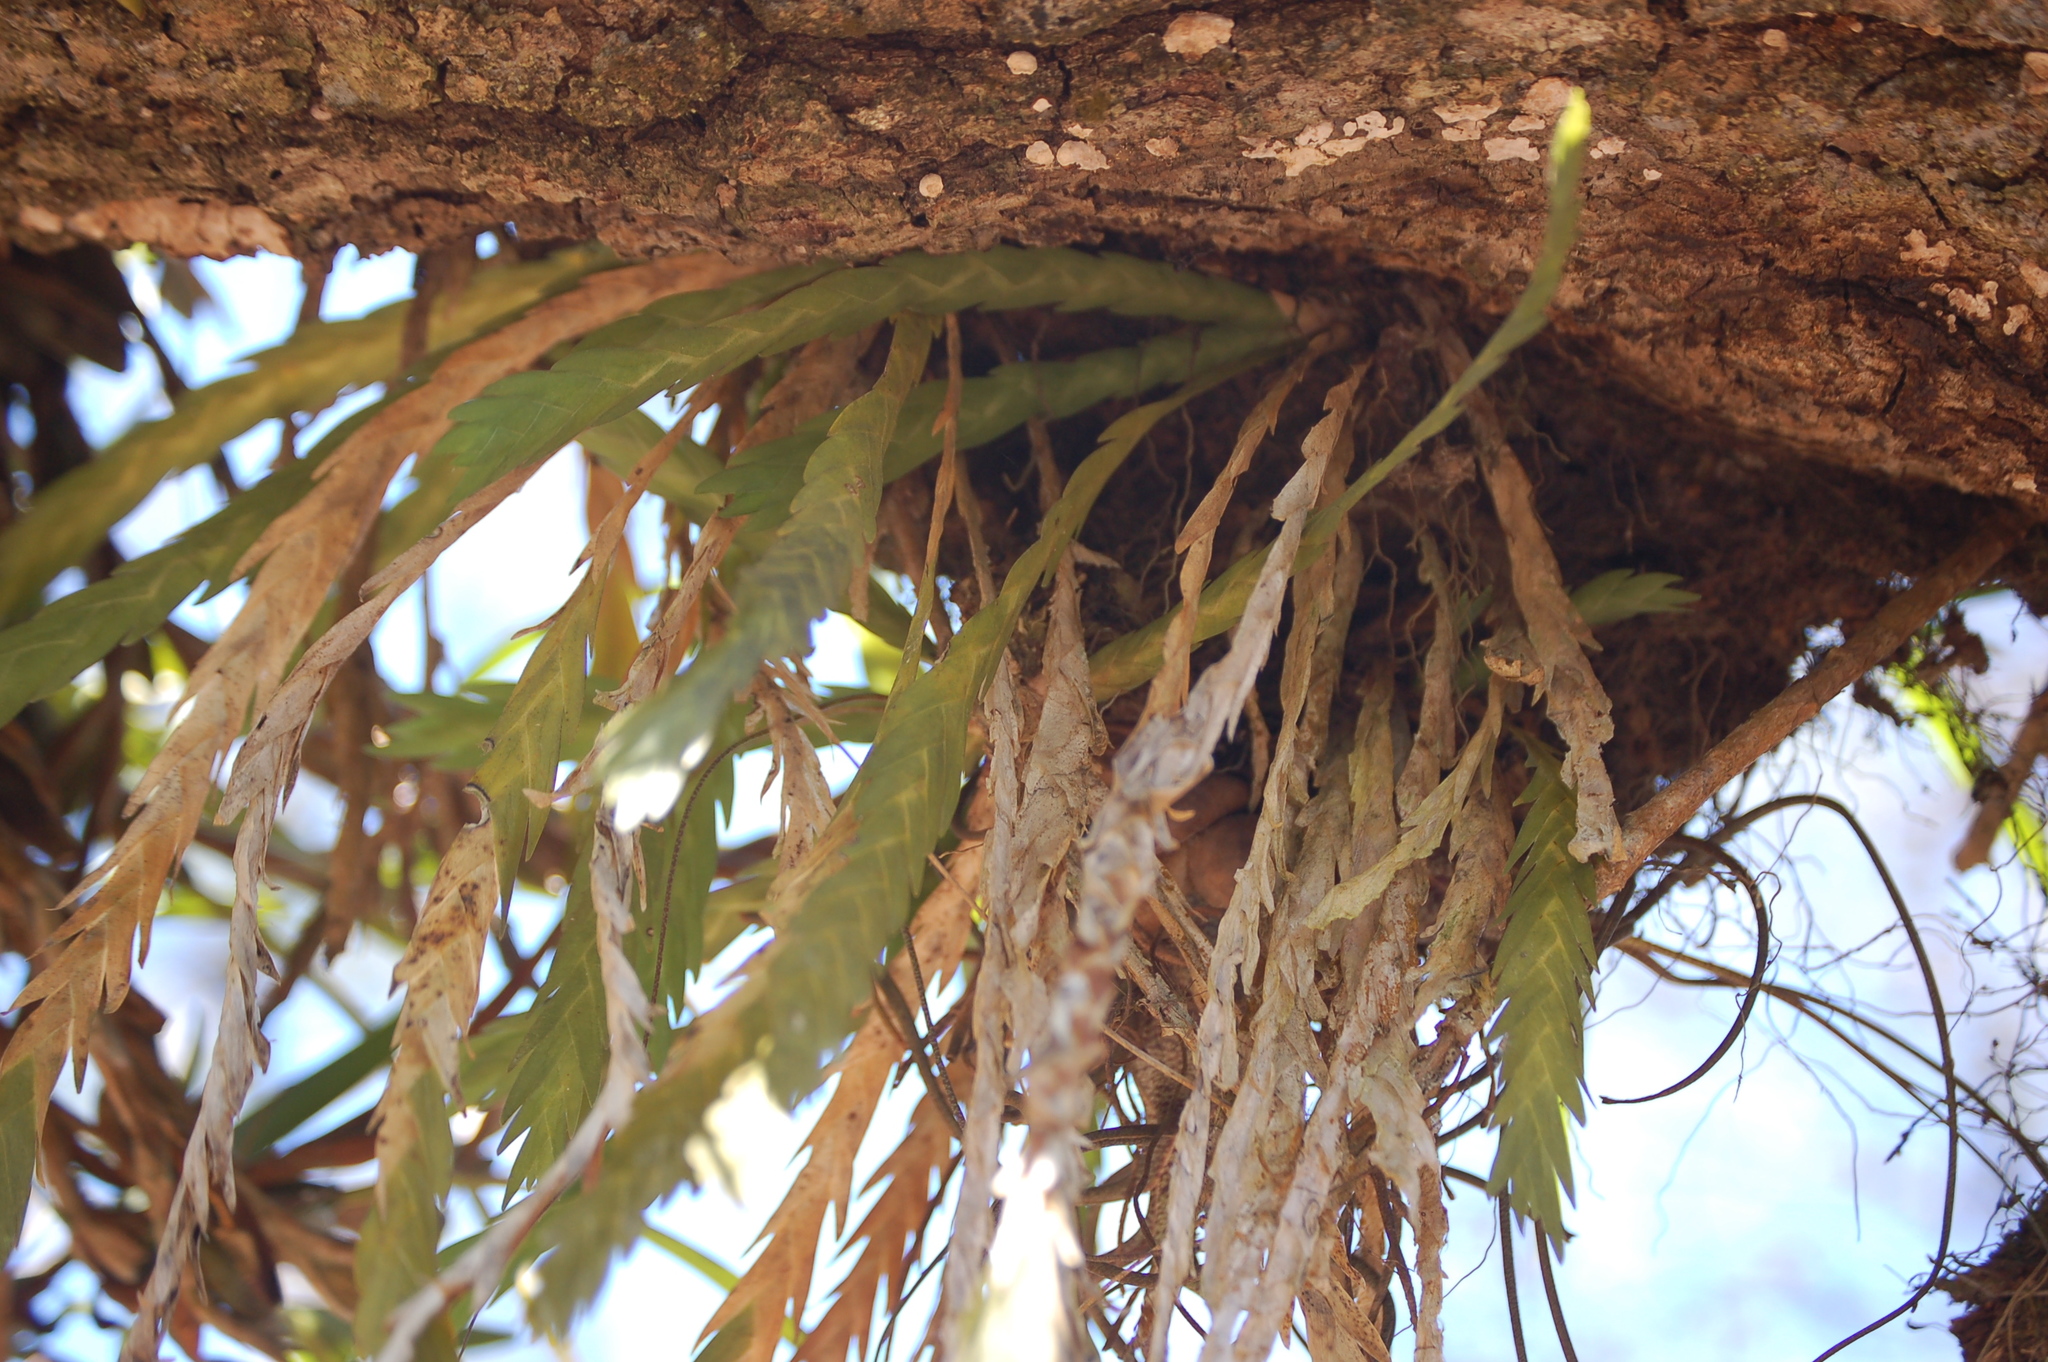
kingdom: Plantae
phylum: Tracheophyta
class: Liliopsida
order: Asparagales
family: Orchidaceae
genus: Lockhartia
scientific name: Lockhartia oerstedii
